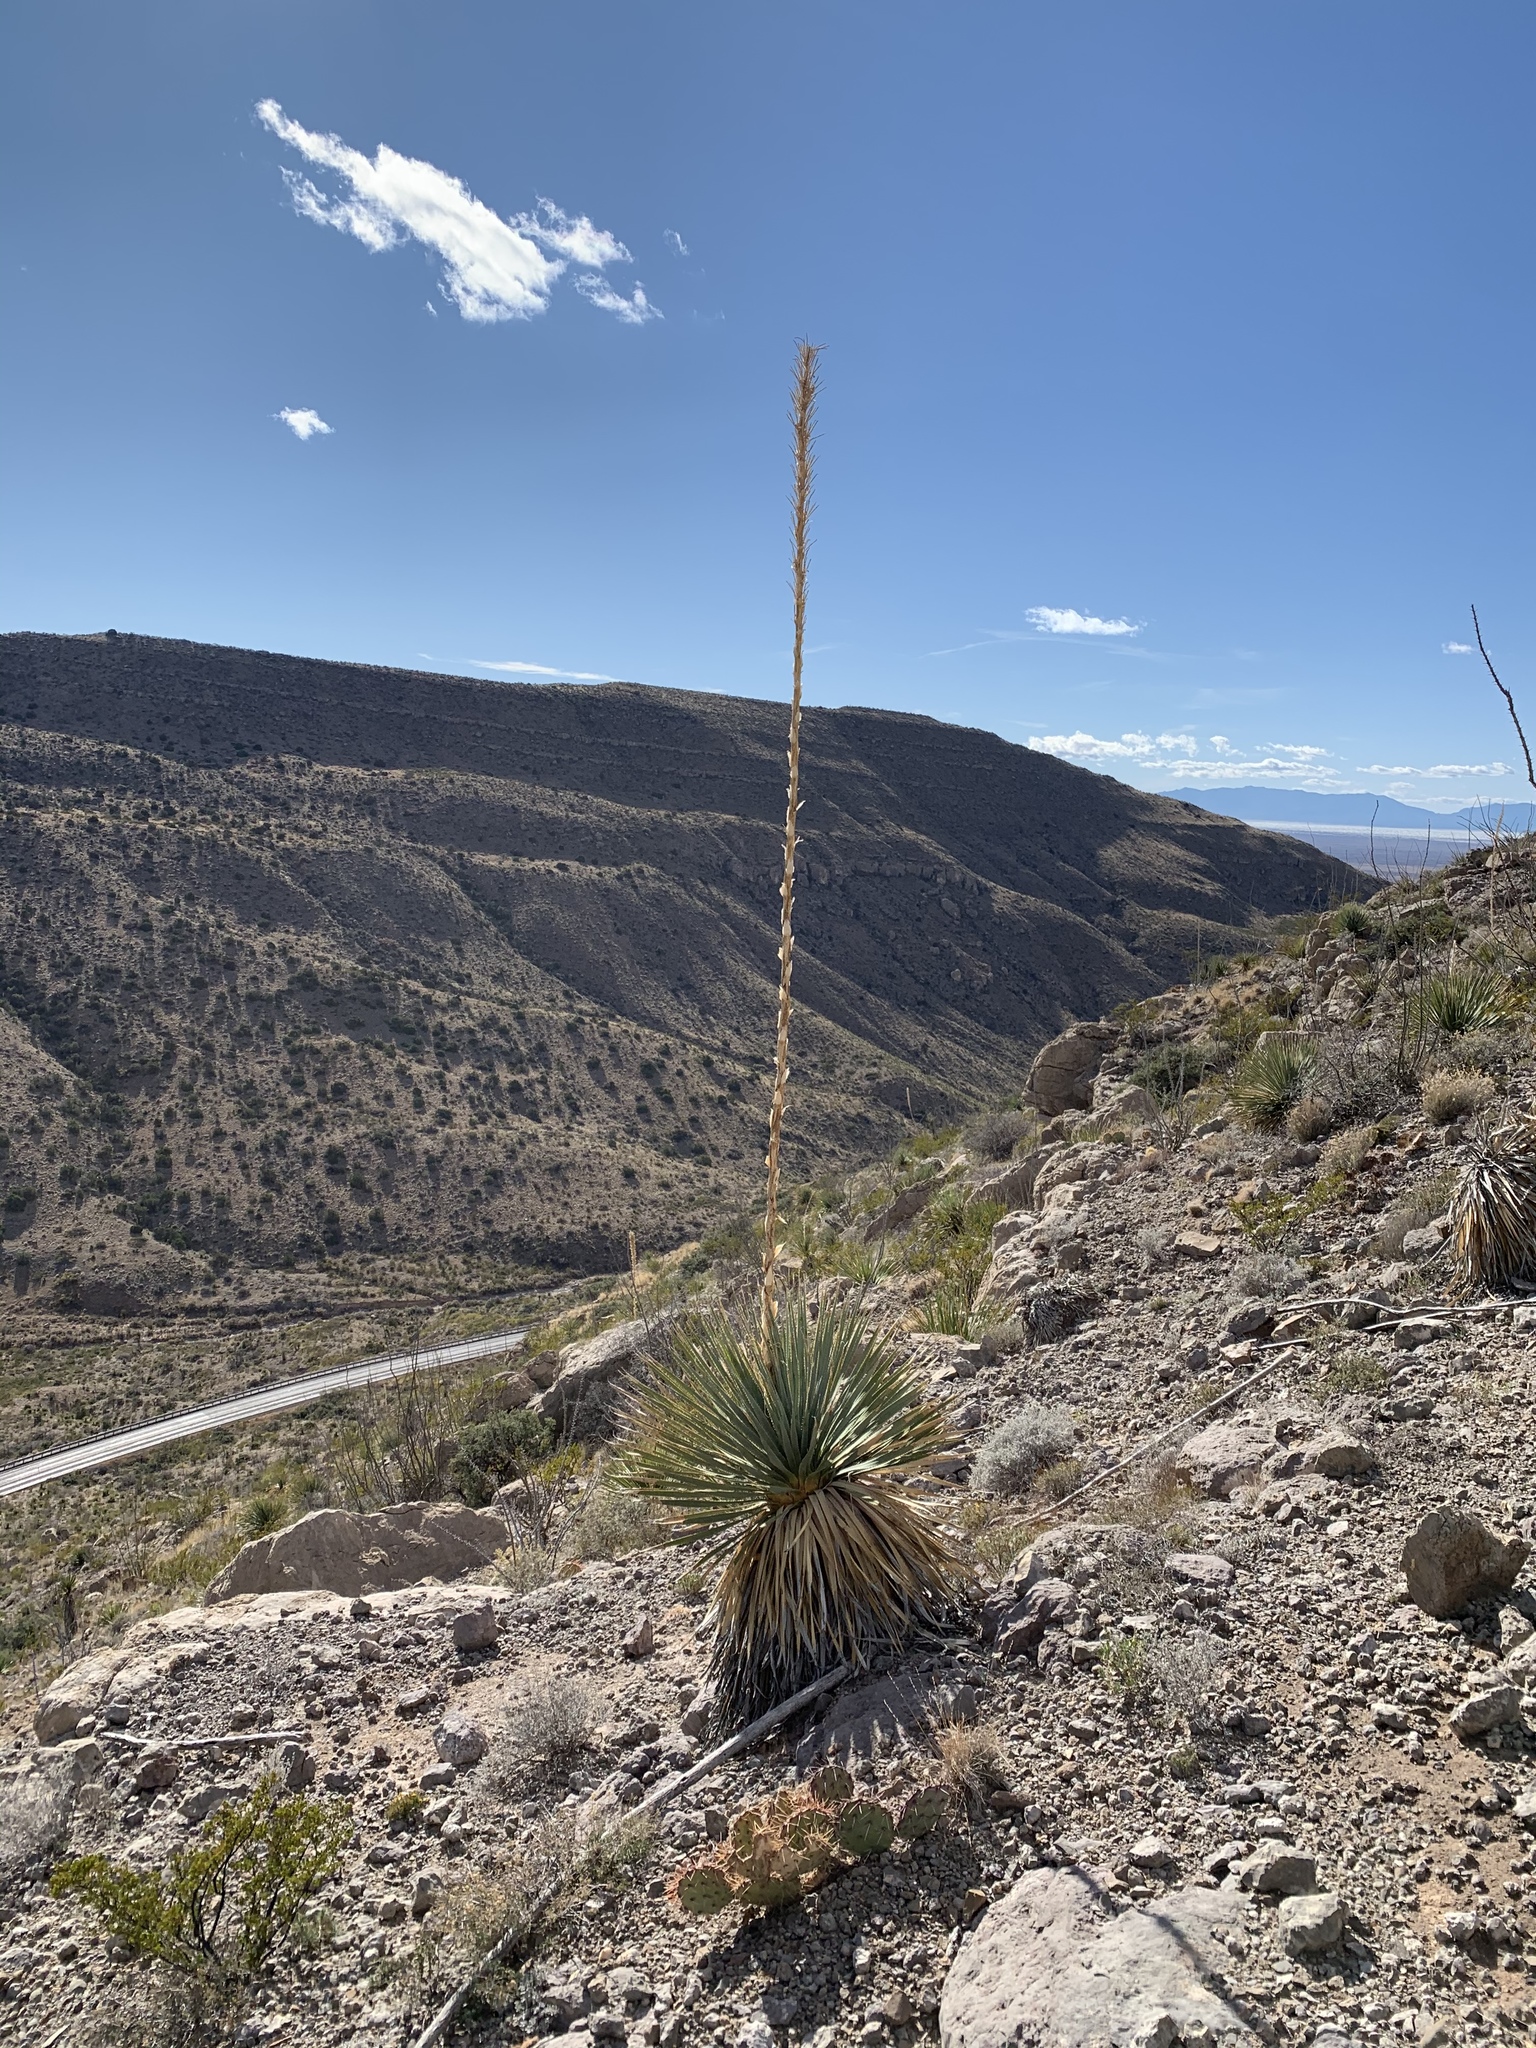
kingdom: Plantae
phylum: Tracheophyta
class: Liliopsida
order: Asparagales
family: Asparagaceae
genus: Dasylirion
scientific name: Dasylirion wheeleri
